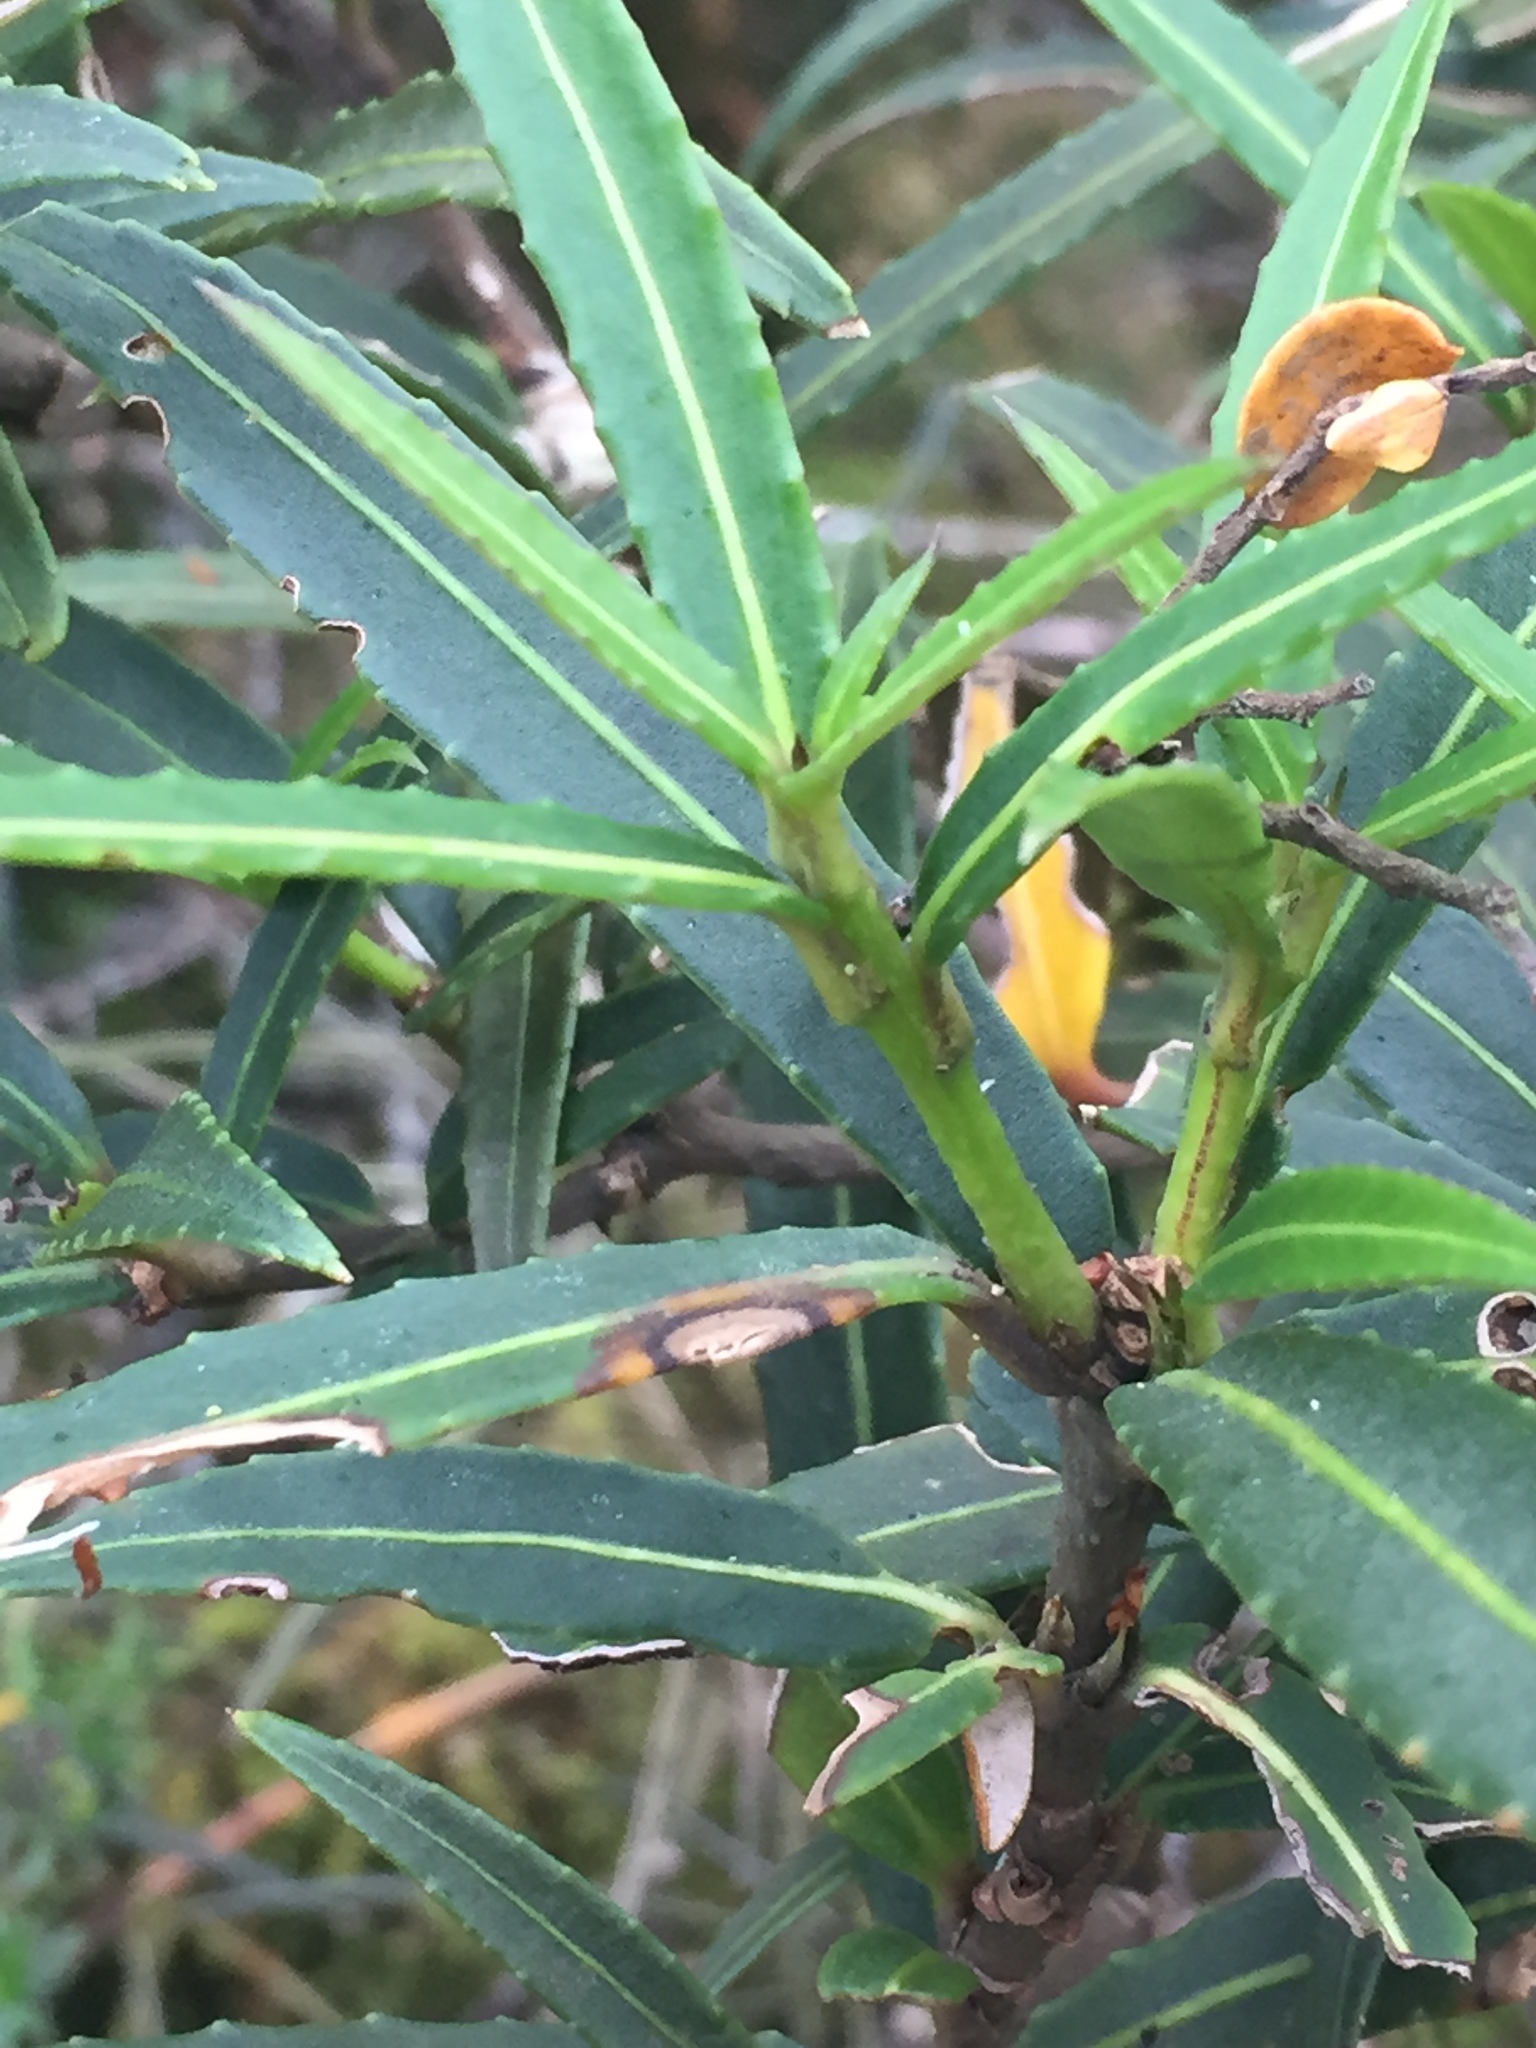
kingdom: Plantae
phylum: Tracheophyta
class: Magnoliopsida
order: Apiales
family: Araliaceae
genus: Pseudopanax
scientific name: Pseudopanax linearis
